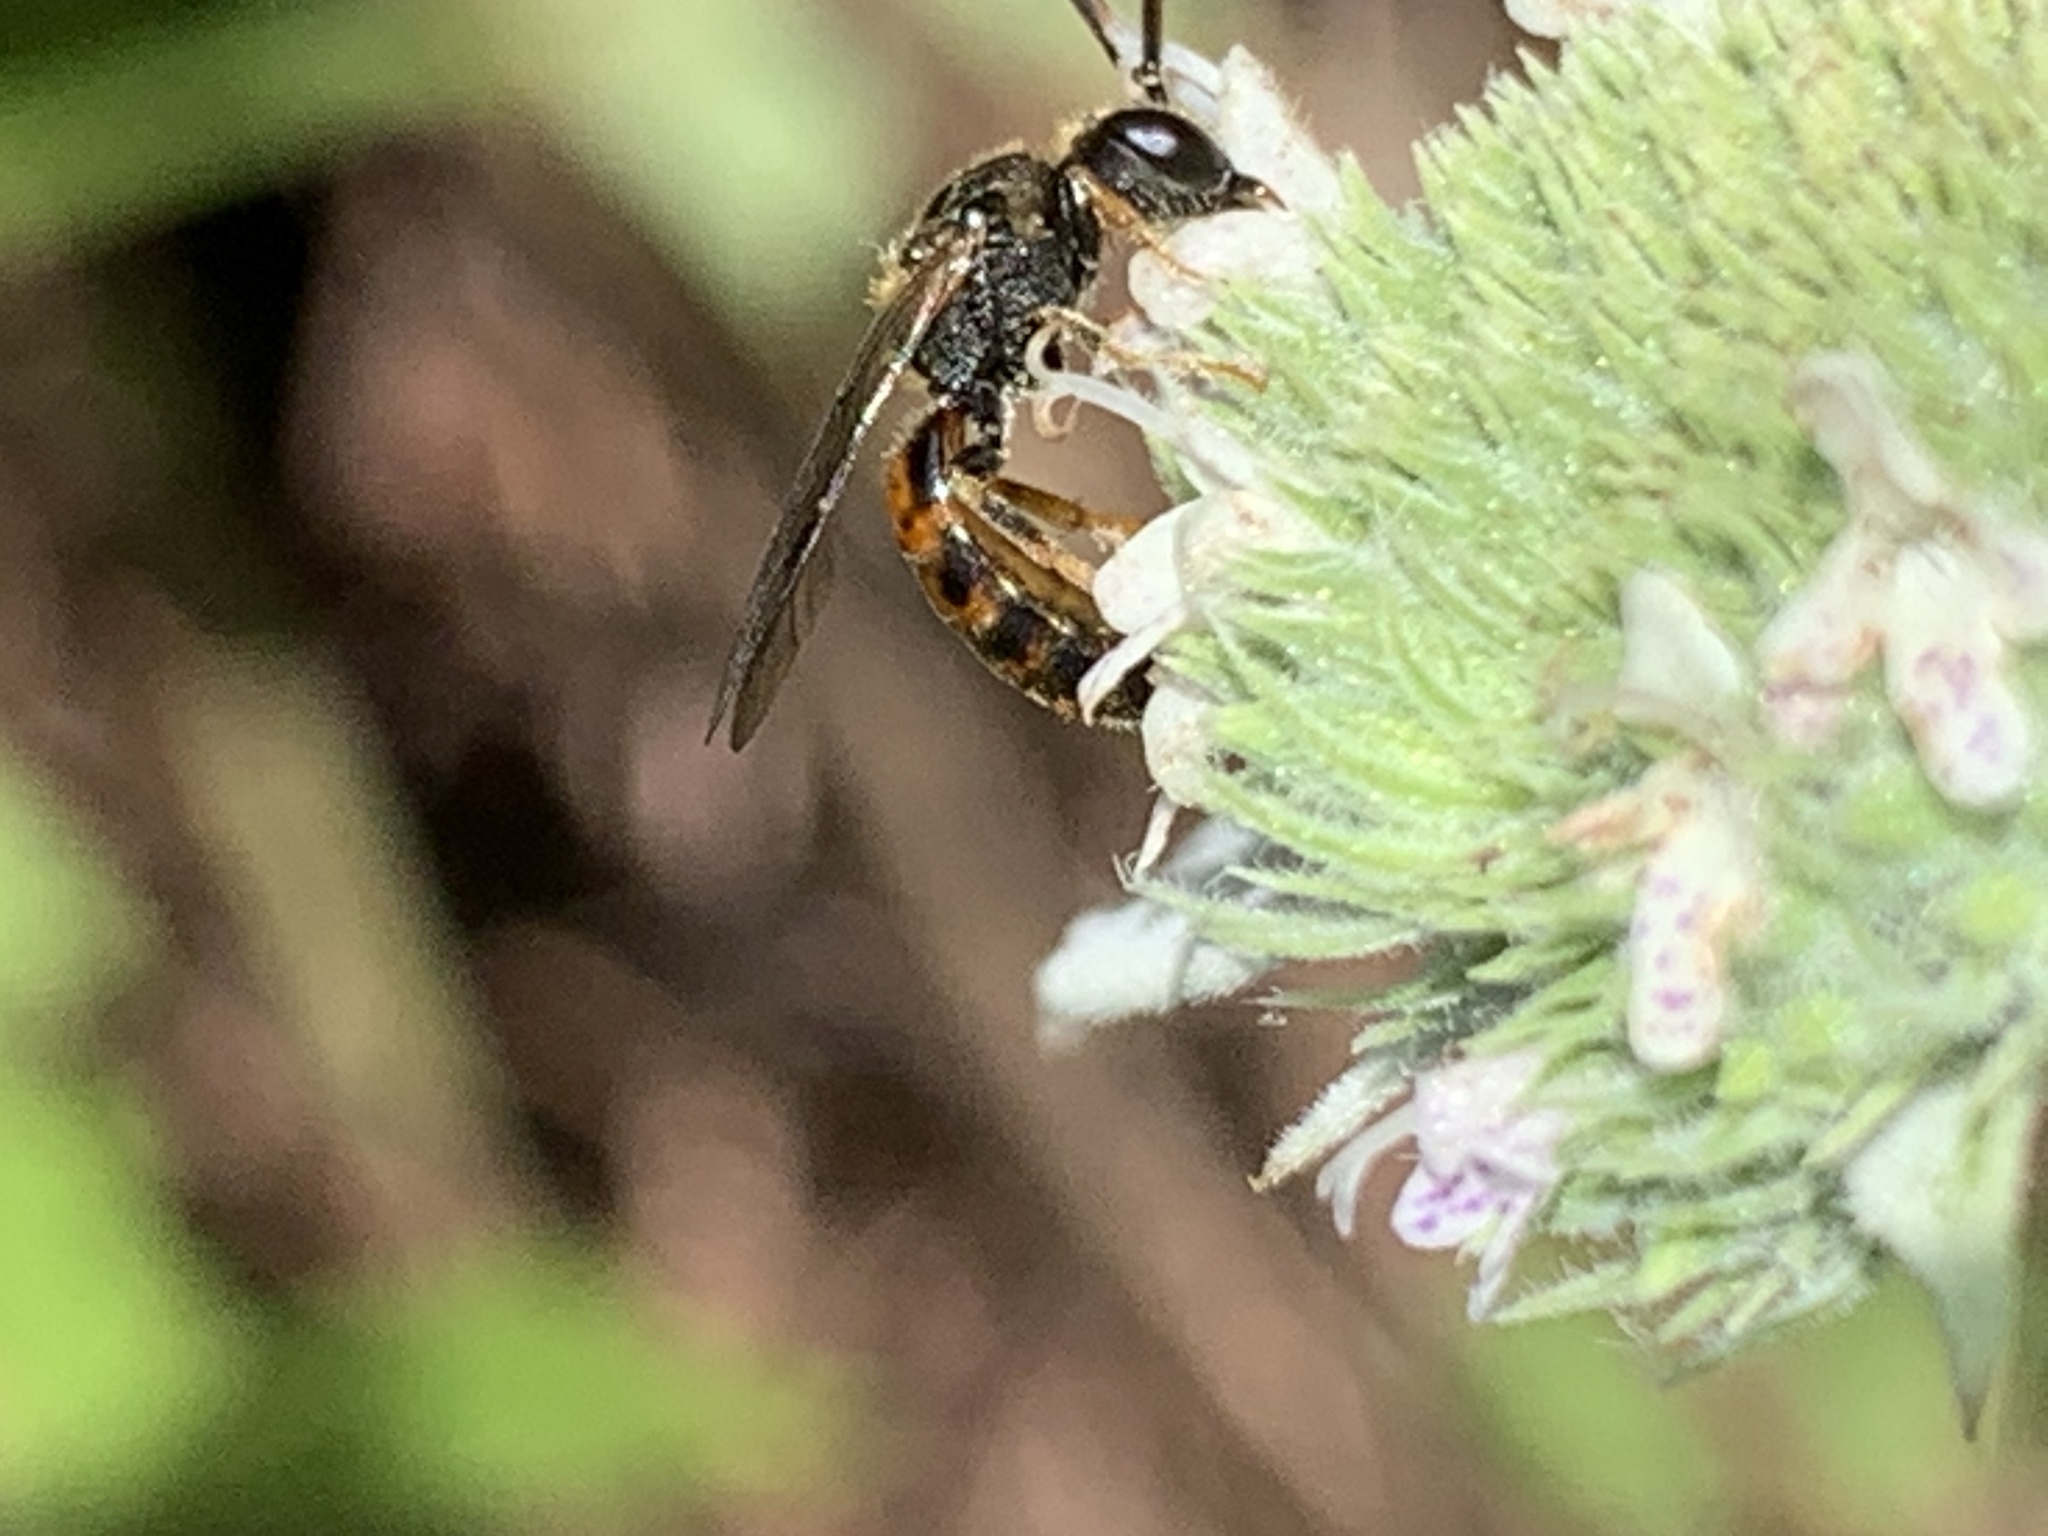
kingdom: Animalia
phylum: Arthropoda
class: Insecta
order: Hymenoptera
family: Halictidae
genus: Lasioglossum
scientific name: Lasioglossum quebecense
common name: Quebec sweat bee
